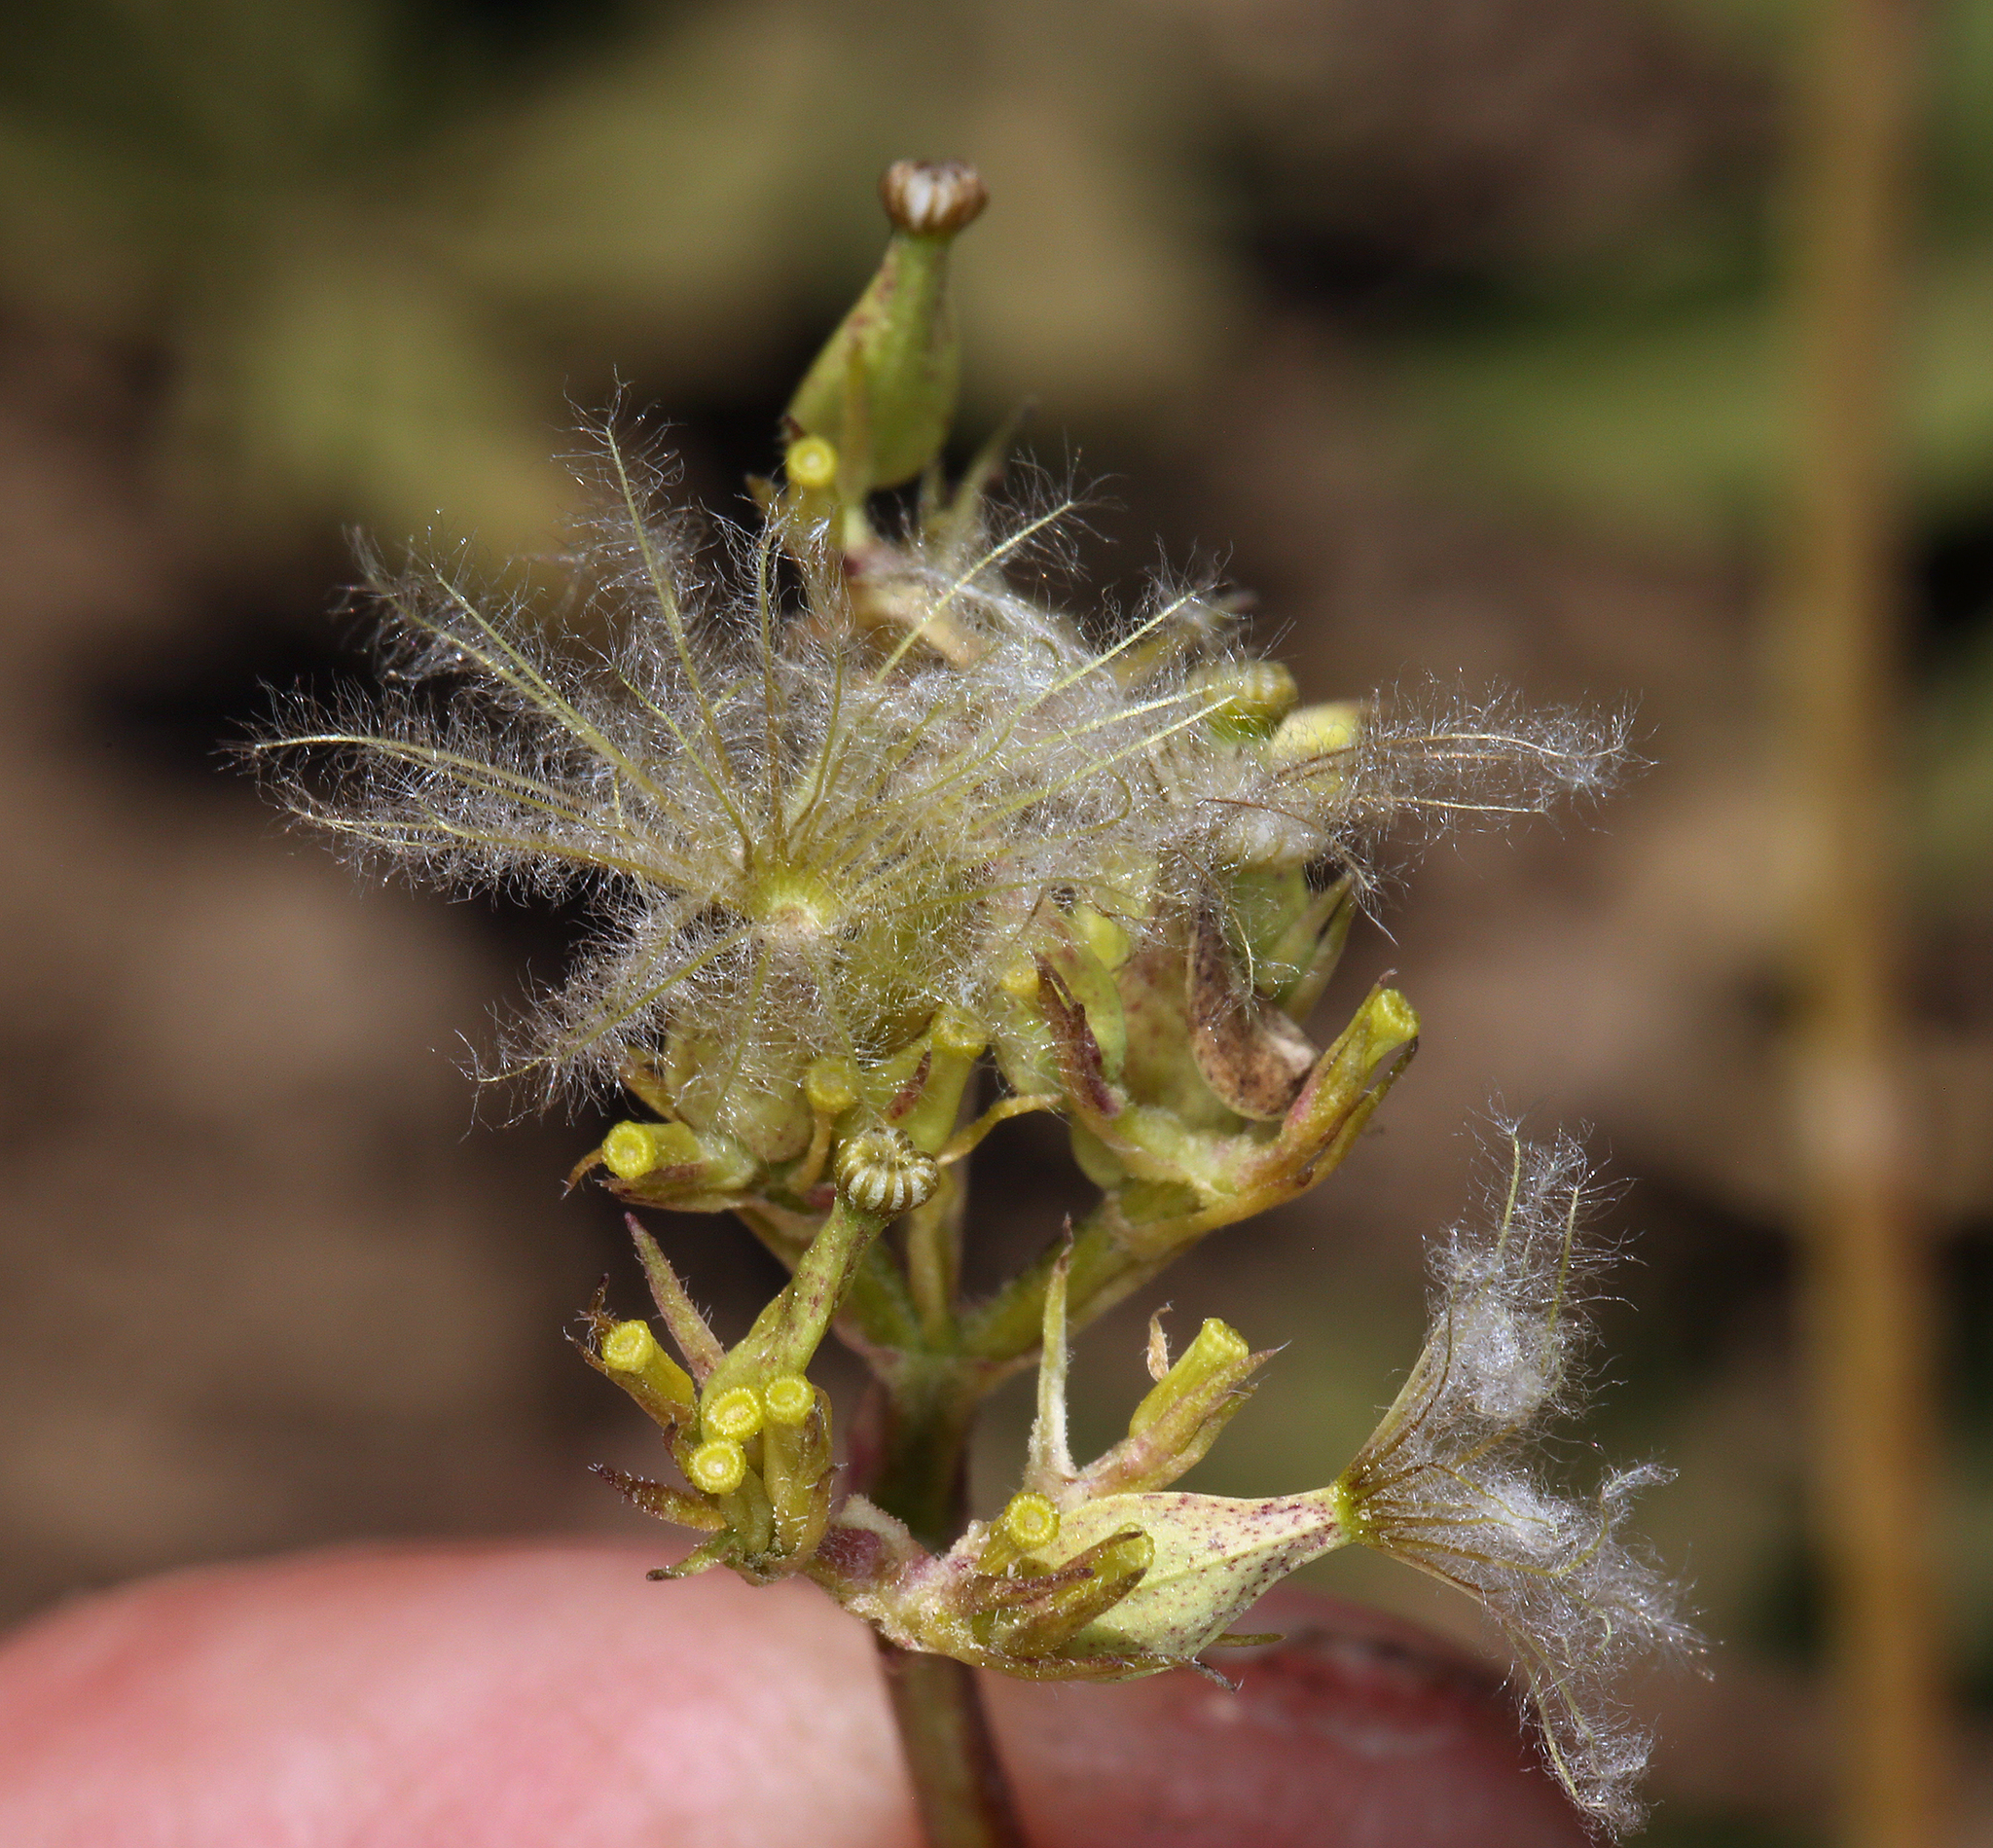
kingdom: Plantae
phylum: Tracheophyta
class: Magnoliopsida
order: Dipsacales
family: Caprifoliaceae
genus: Valeriana
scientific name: Valeriana californica
